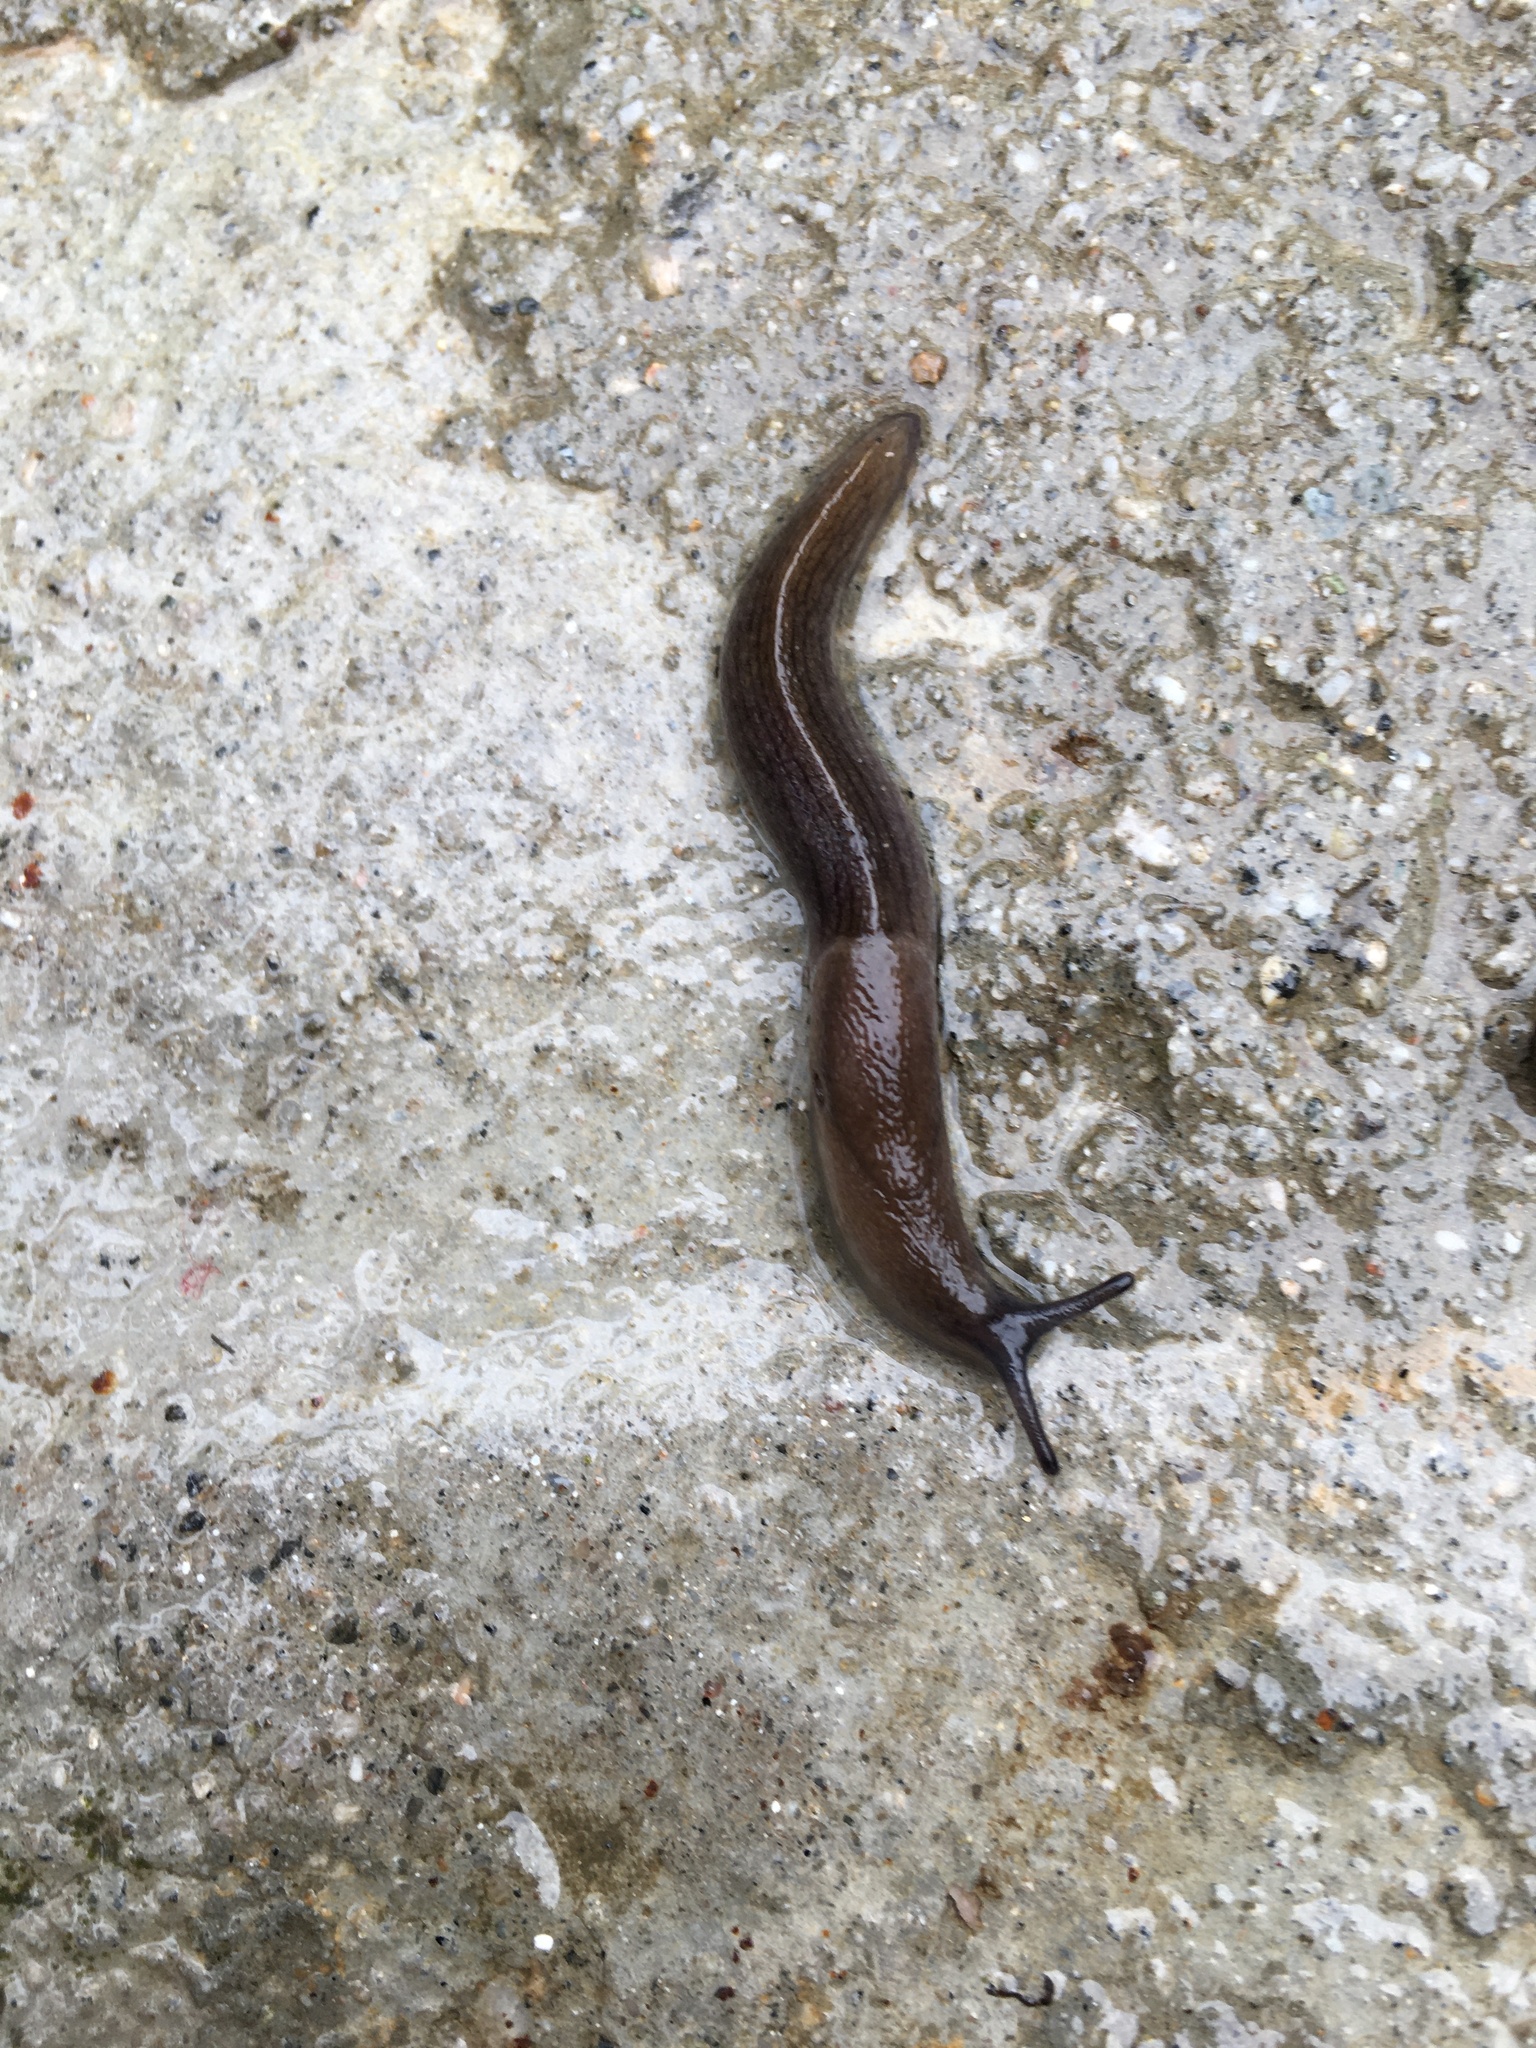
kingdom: Animalia
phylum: Mollusca
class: Gastropoda
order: Stylommatophora
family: Milacidae
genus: Milax
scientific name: Milax gagates
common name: Greenhouse slug
